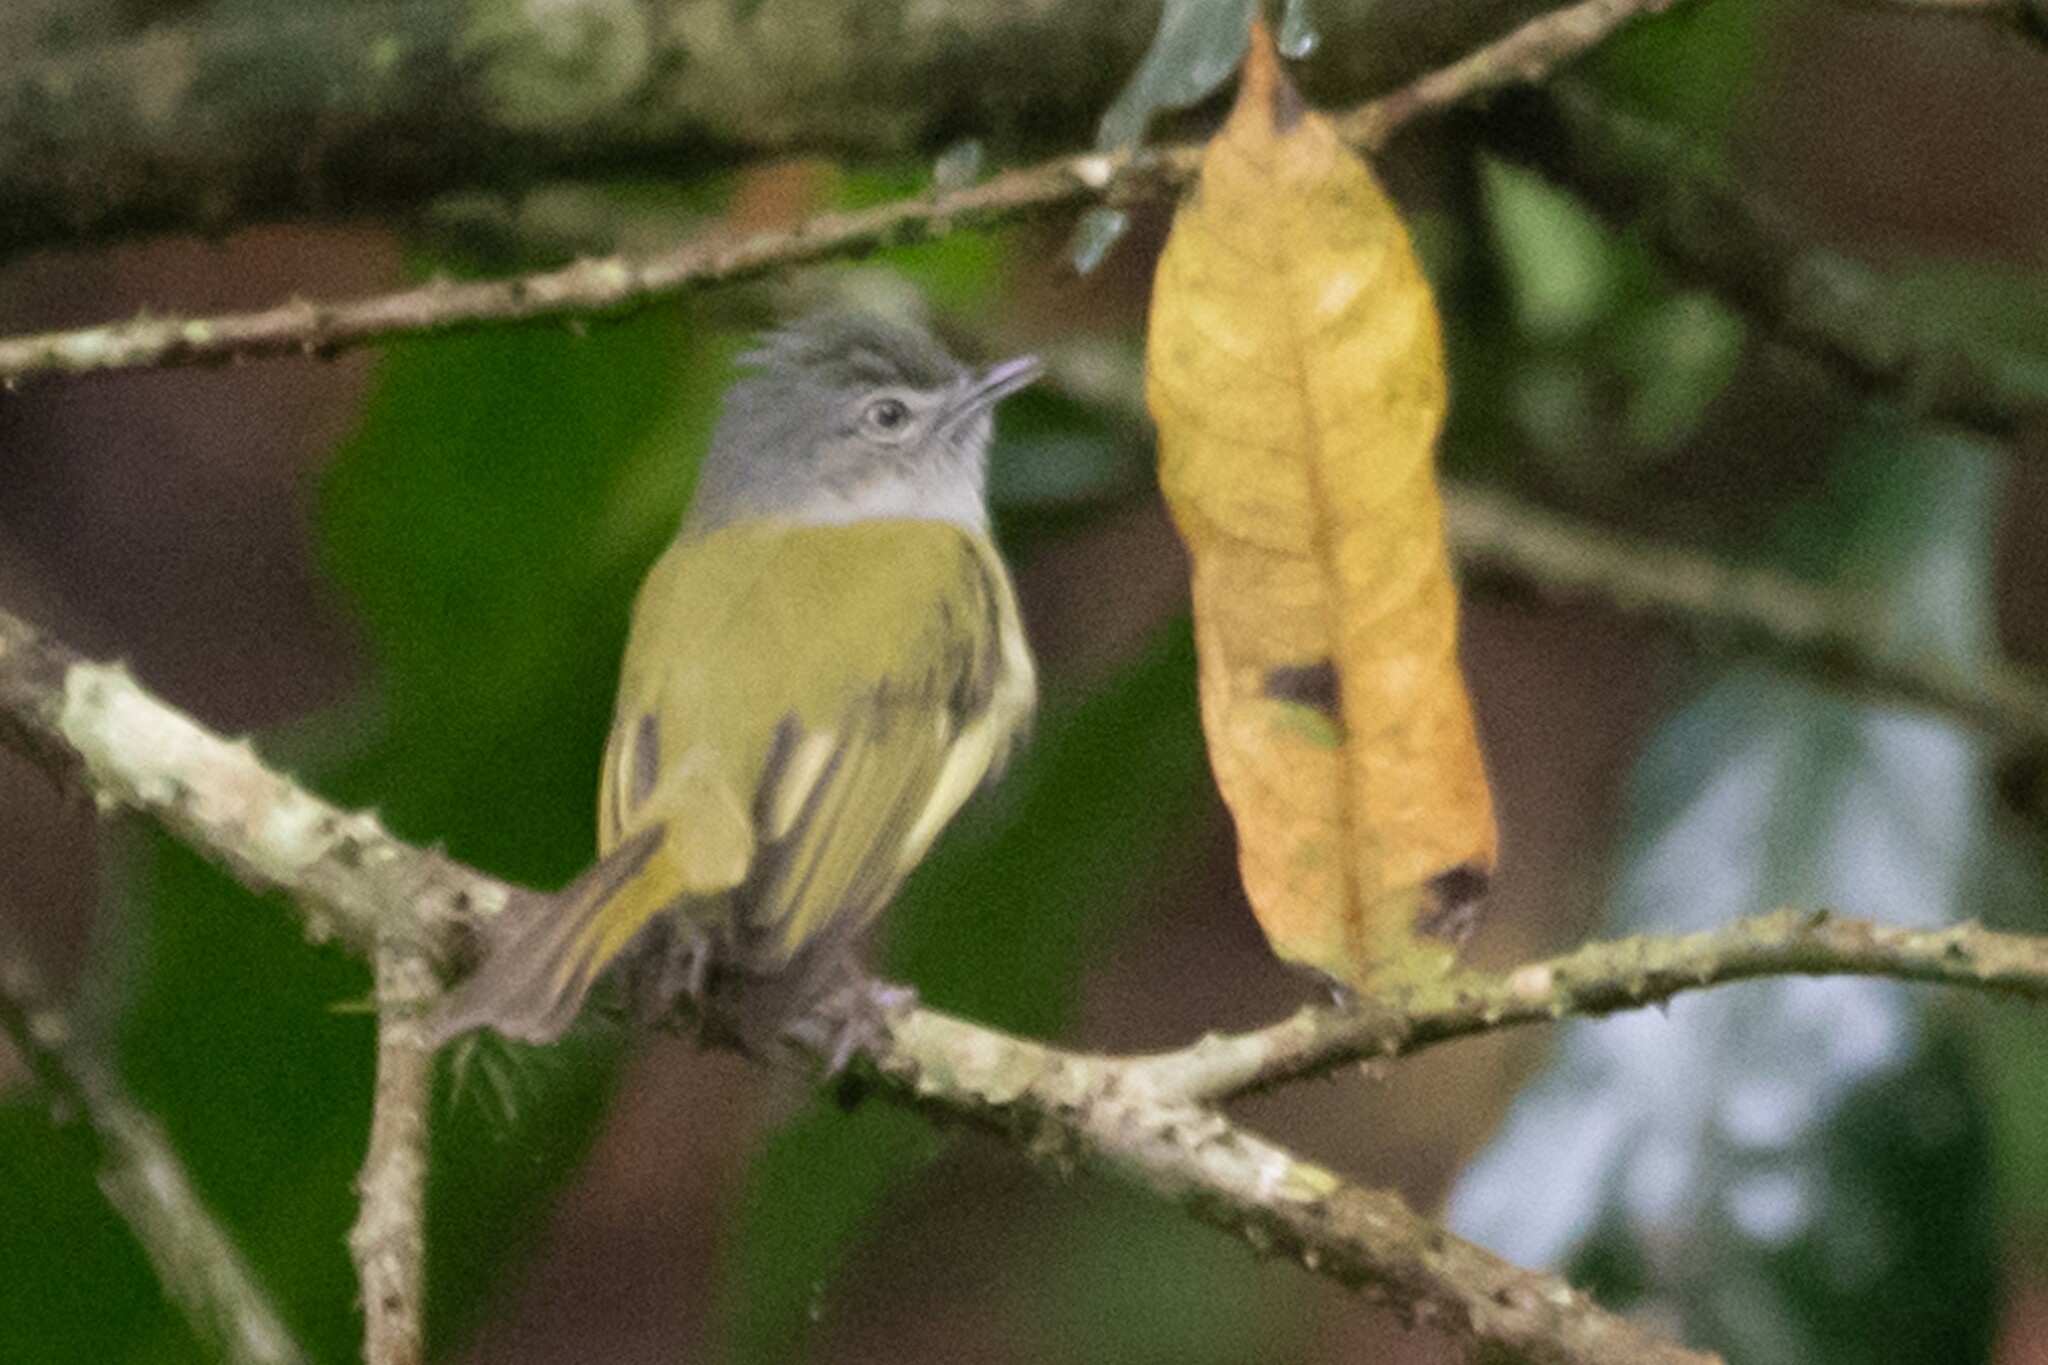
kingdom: Animalia
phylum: Chordata
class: Aves
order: Passeriformes
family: Tyrannidae
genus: Tolmomyias
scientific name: Tolmomyias sulphurescens
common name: Yellow-olive flycatcher
